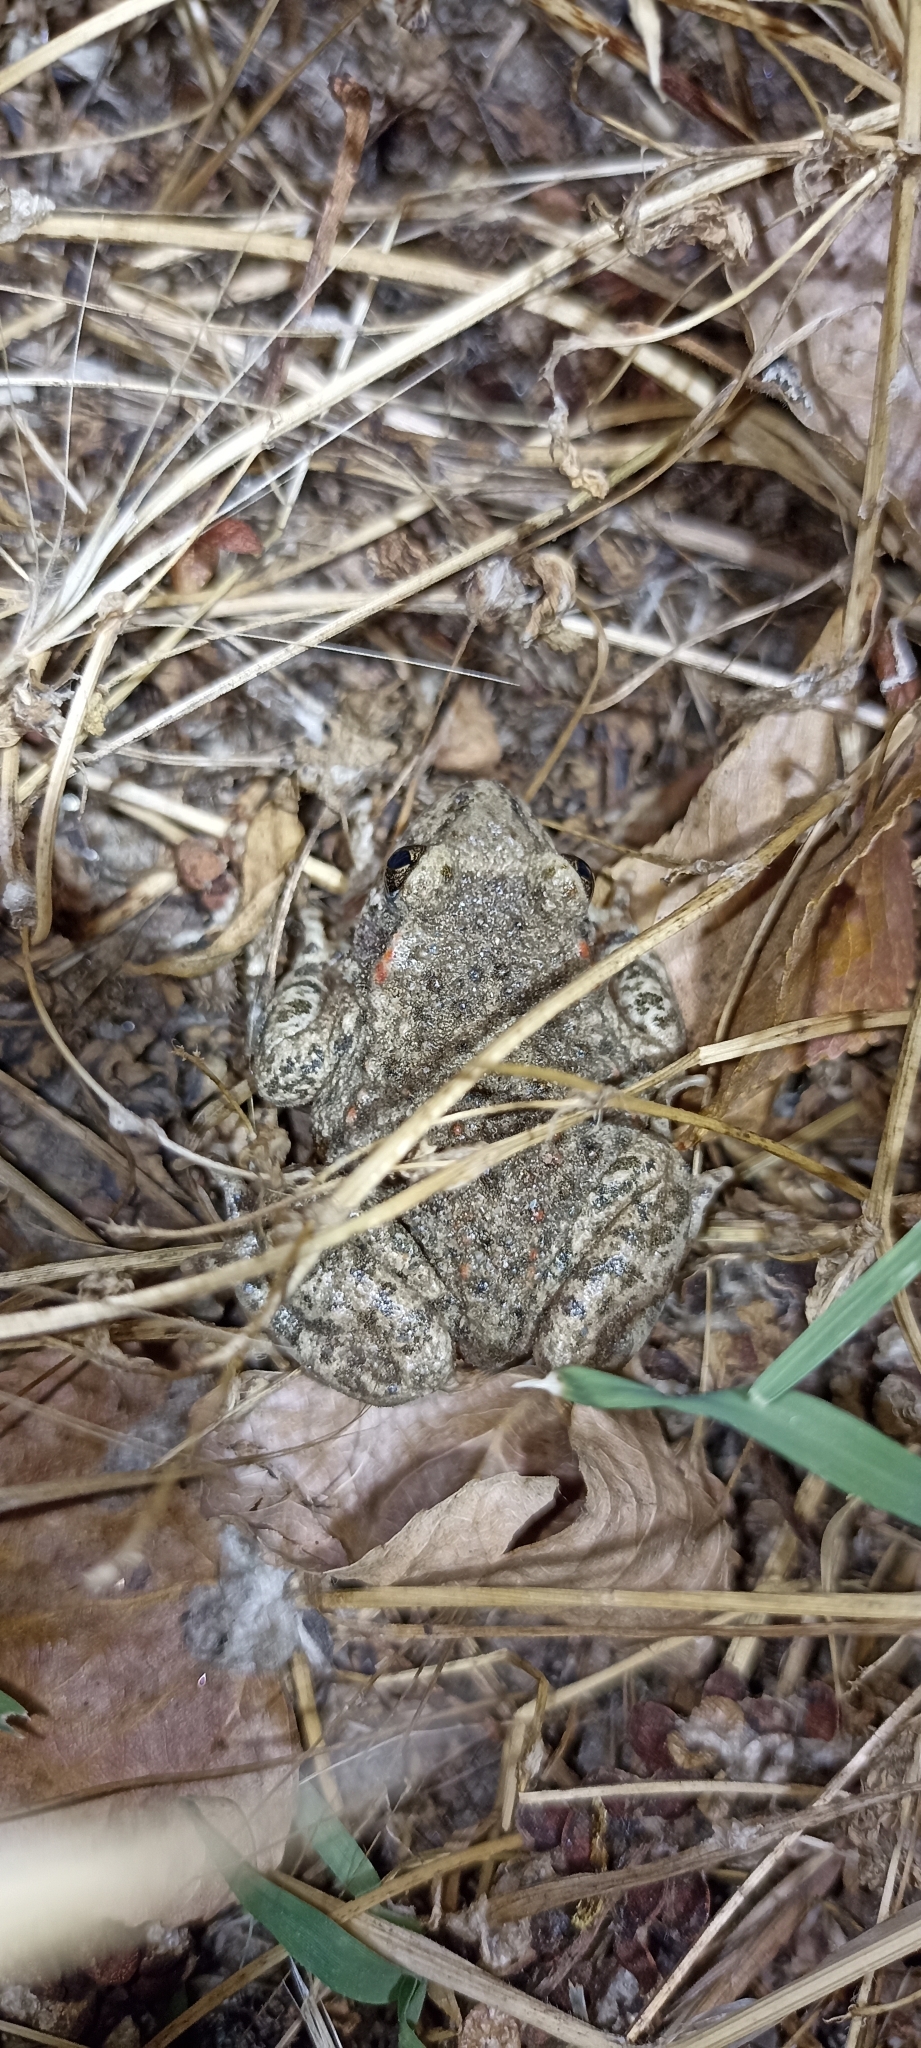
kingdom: Animalia
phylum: Chordata
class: Amphibia
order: Anura
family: Alytidae
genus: Alytes
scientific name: Alytes obstetricans
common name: Midwife toad
